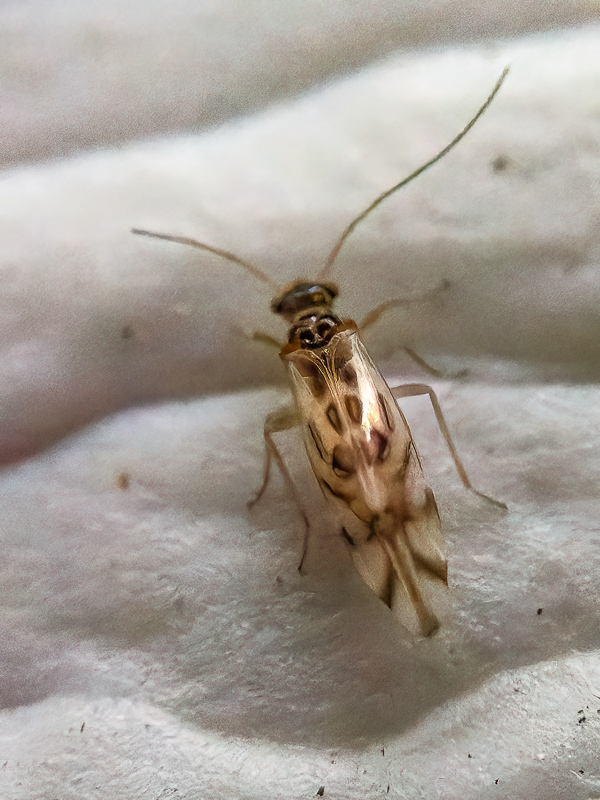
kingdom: Animalia
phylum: Arthropoda
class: Insecta
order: Psocodea
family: Stenopsocidae
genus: Graphopsocus
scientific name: Graphopsocus cruciatus
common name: Lizard bark louse
